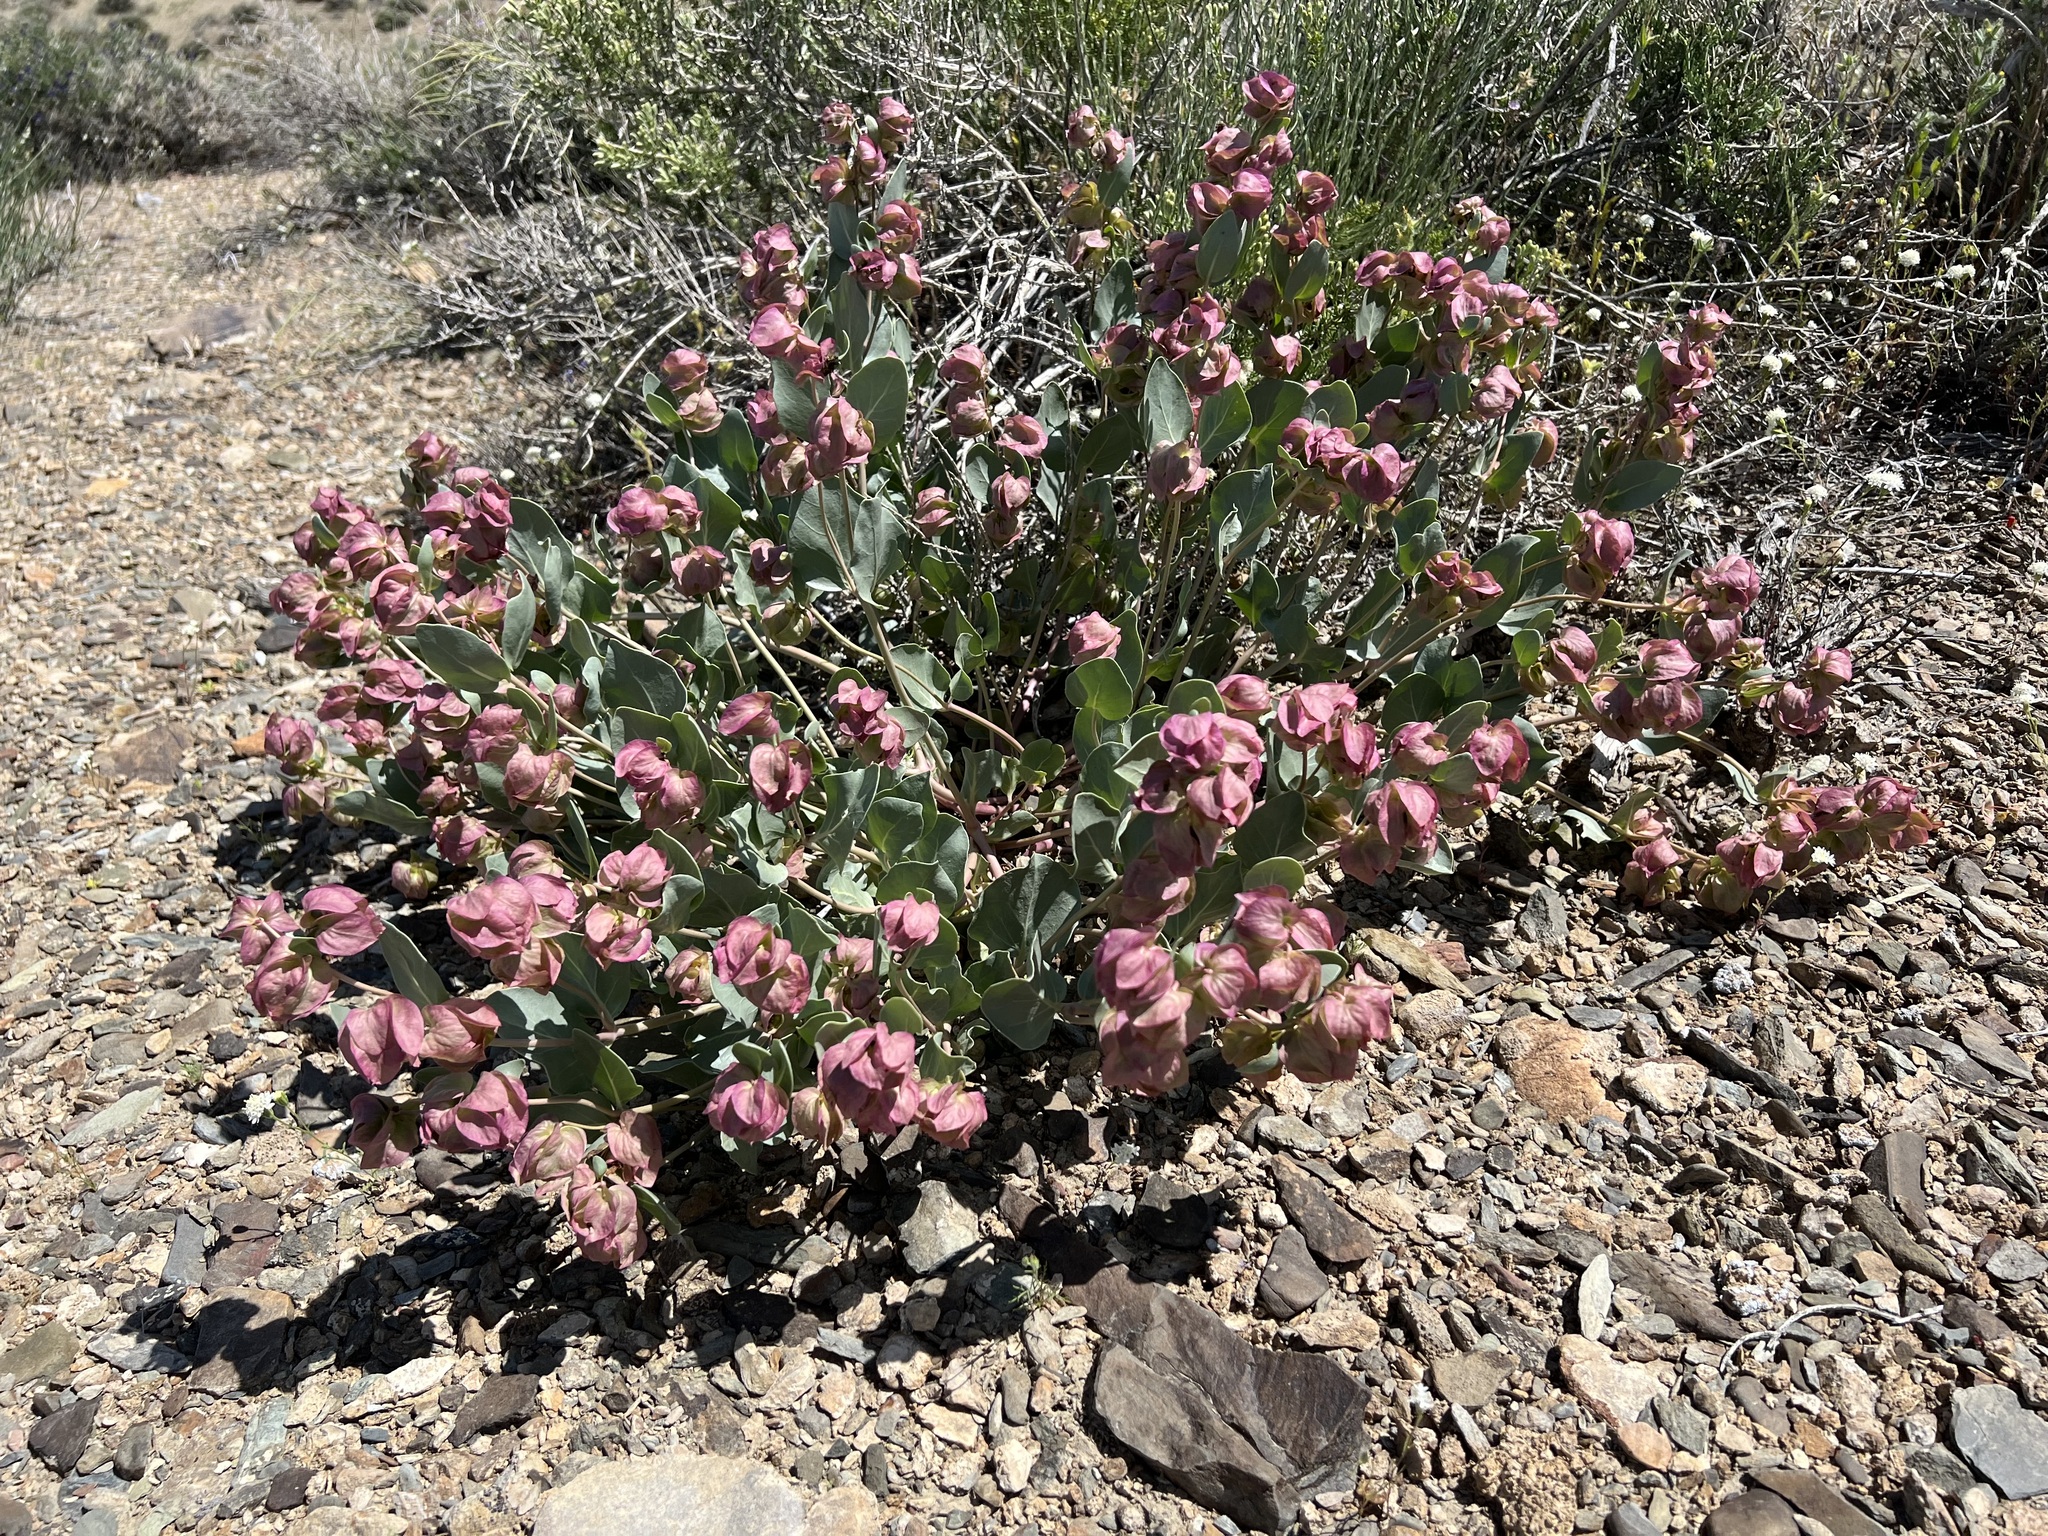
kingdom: Plantae
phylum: Tracheophyta
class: Magnoliopsida
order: Caryophyllales
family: Nyctaginaceae
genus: Mirabilis
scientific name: Mirabilis alipes
